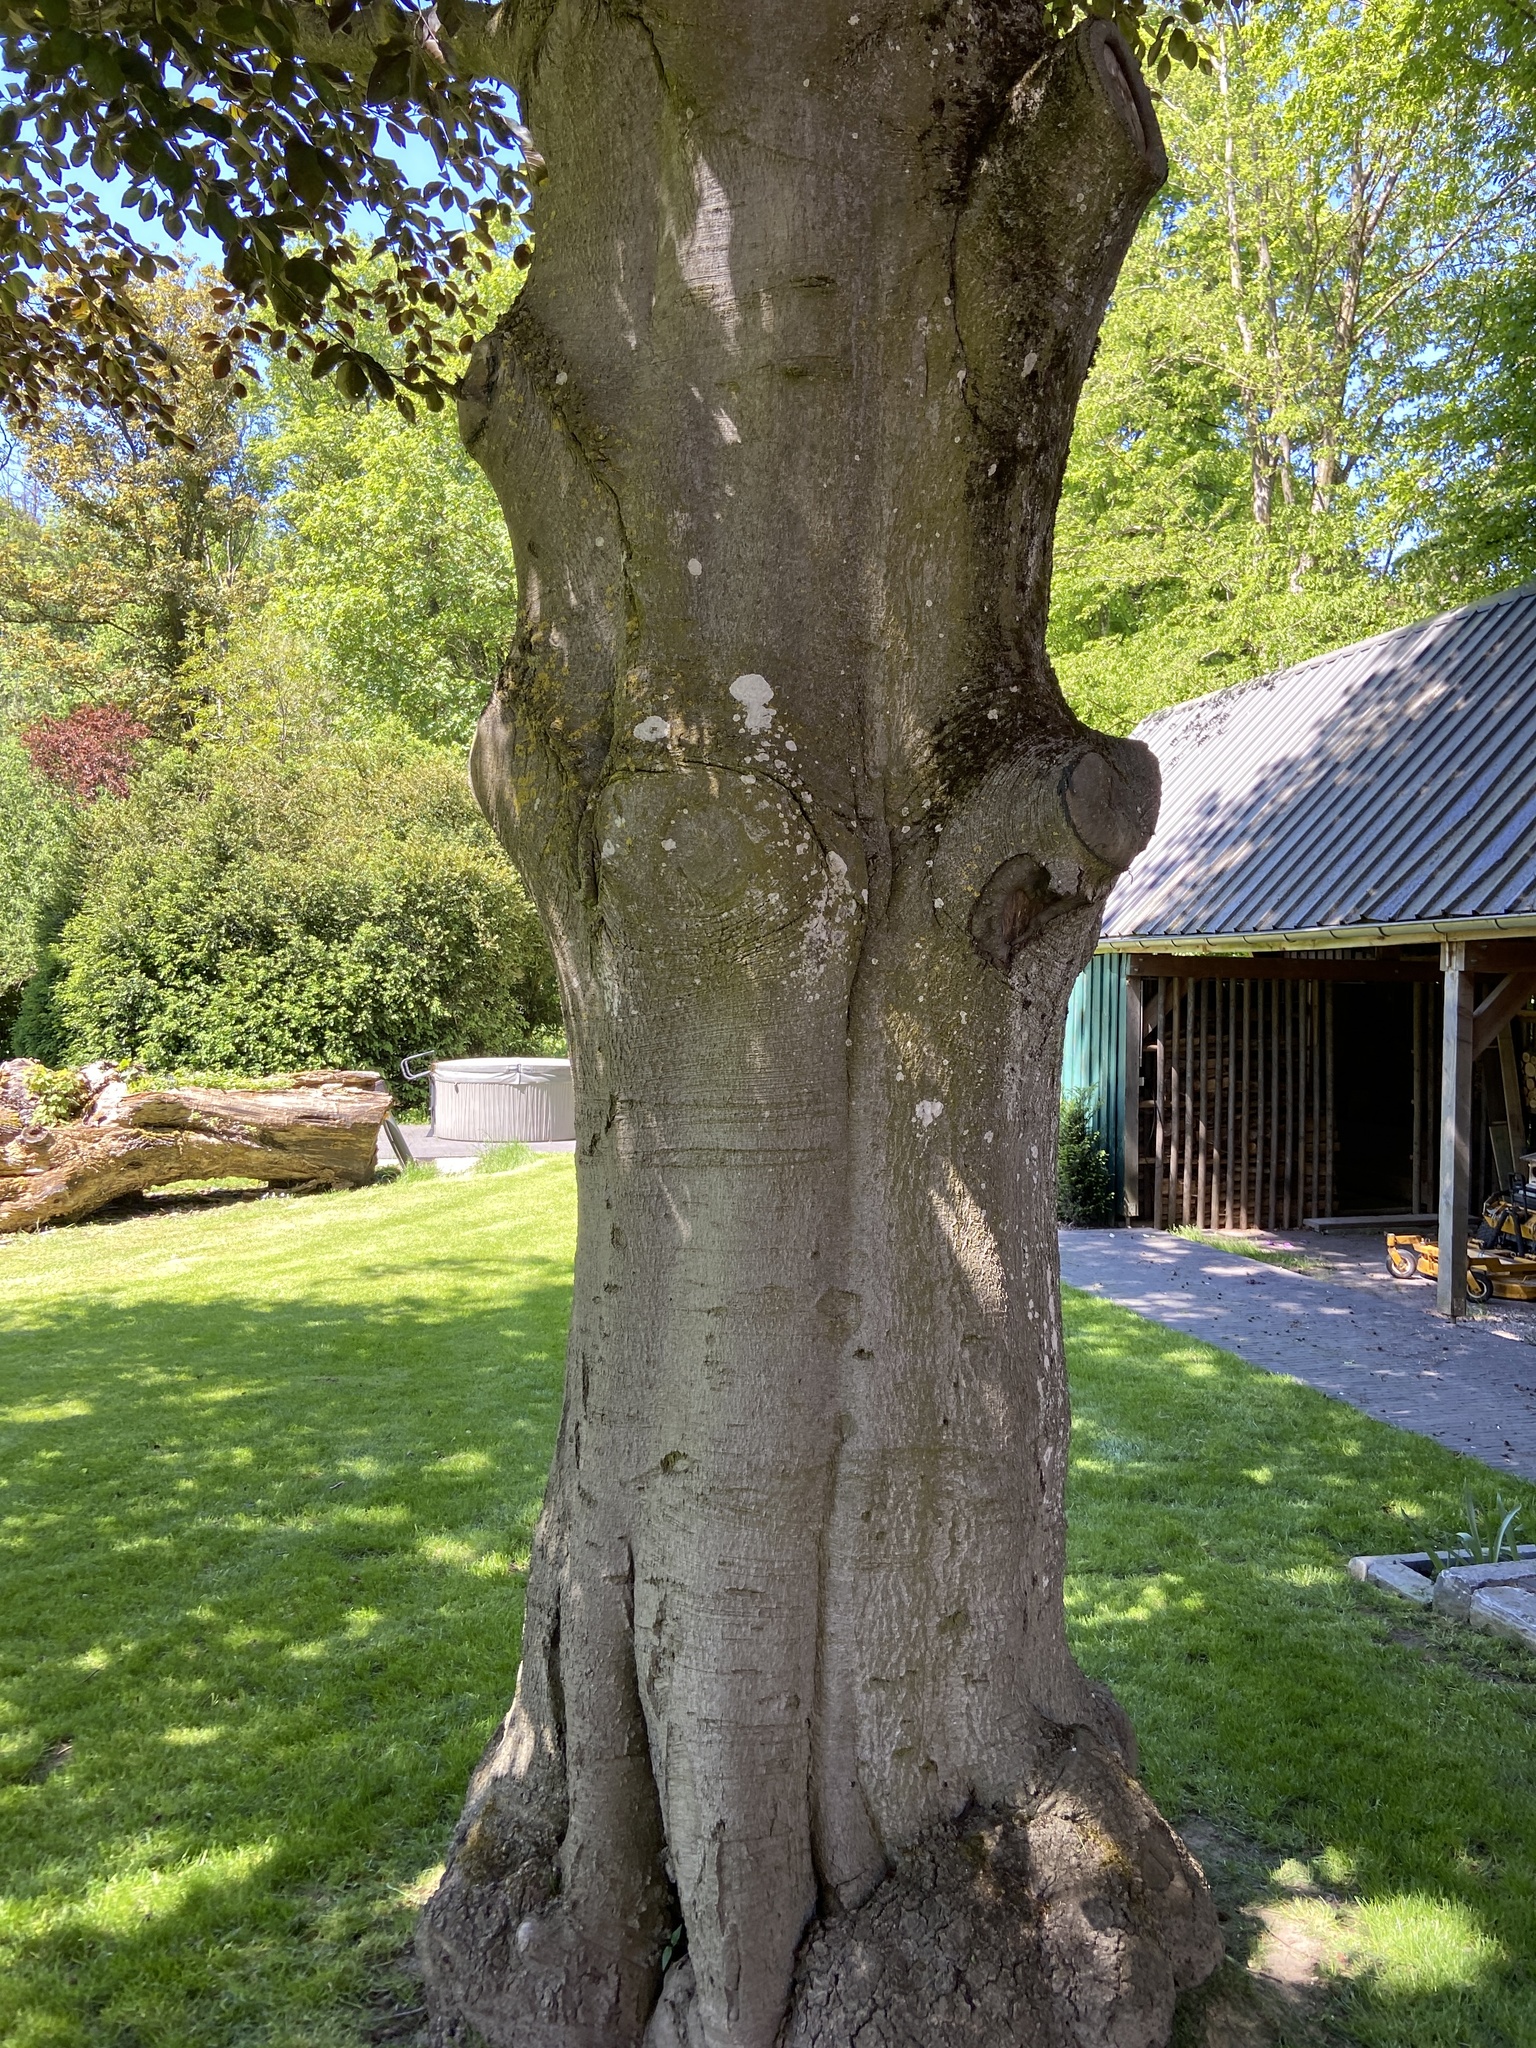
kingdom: Plantae
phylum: Tracheophyta
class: Magnoliopsida
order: Fagales
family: Fagaceae
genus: Fagus
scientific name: Fagus sylvatica
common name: Beech
